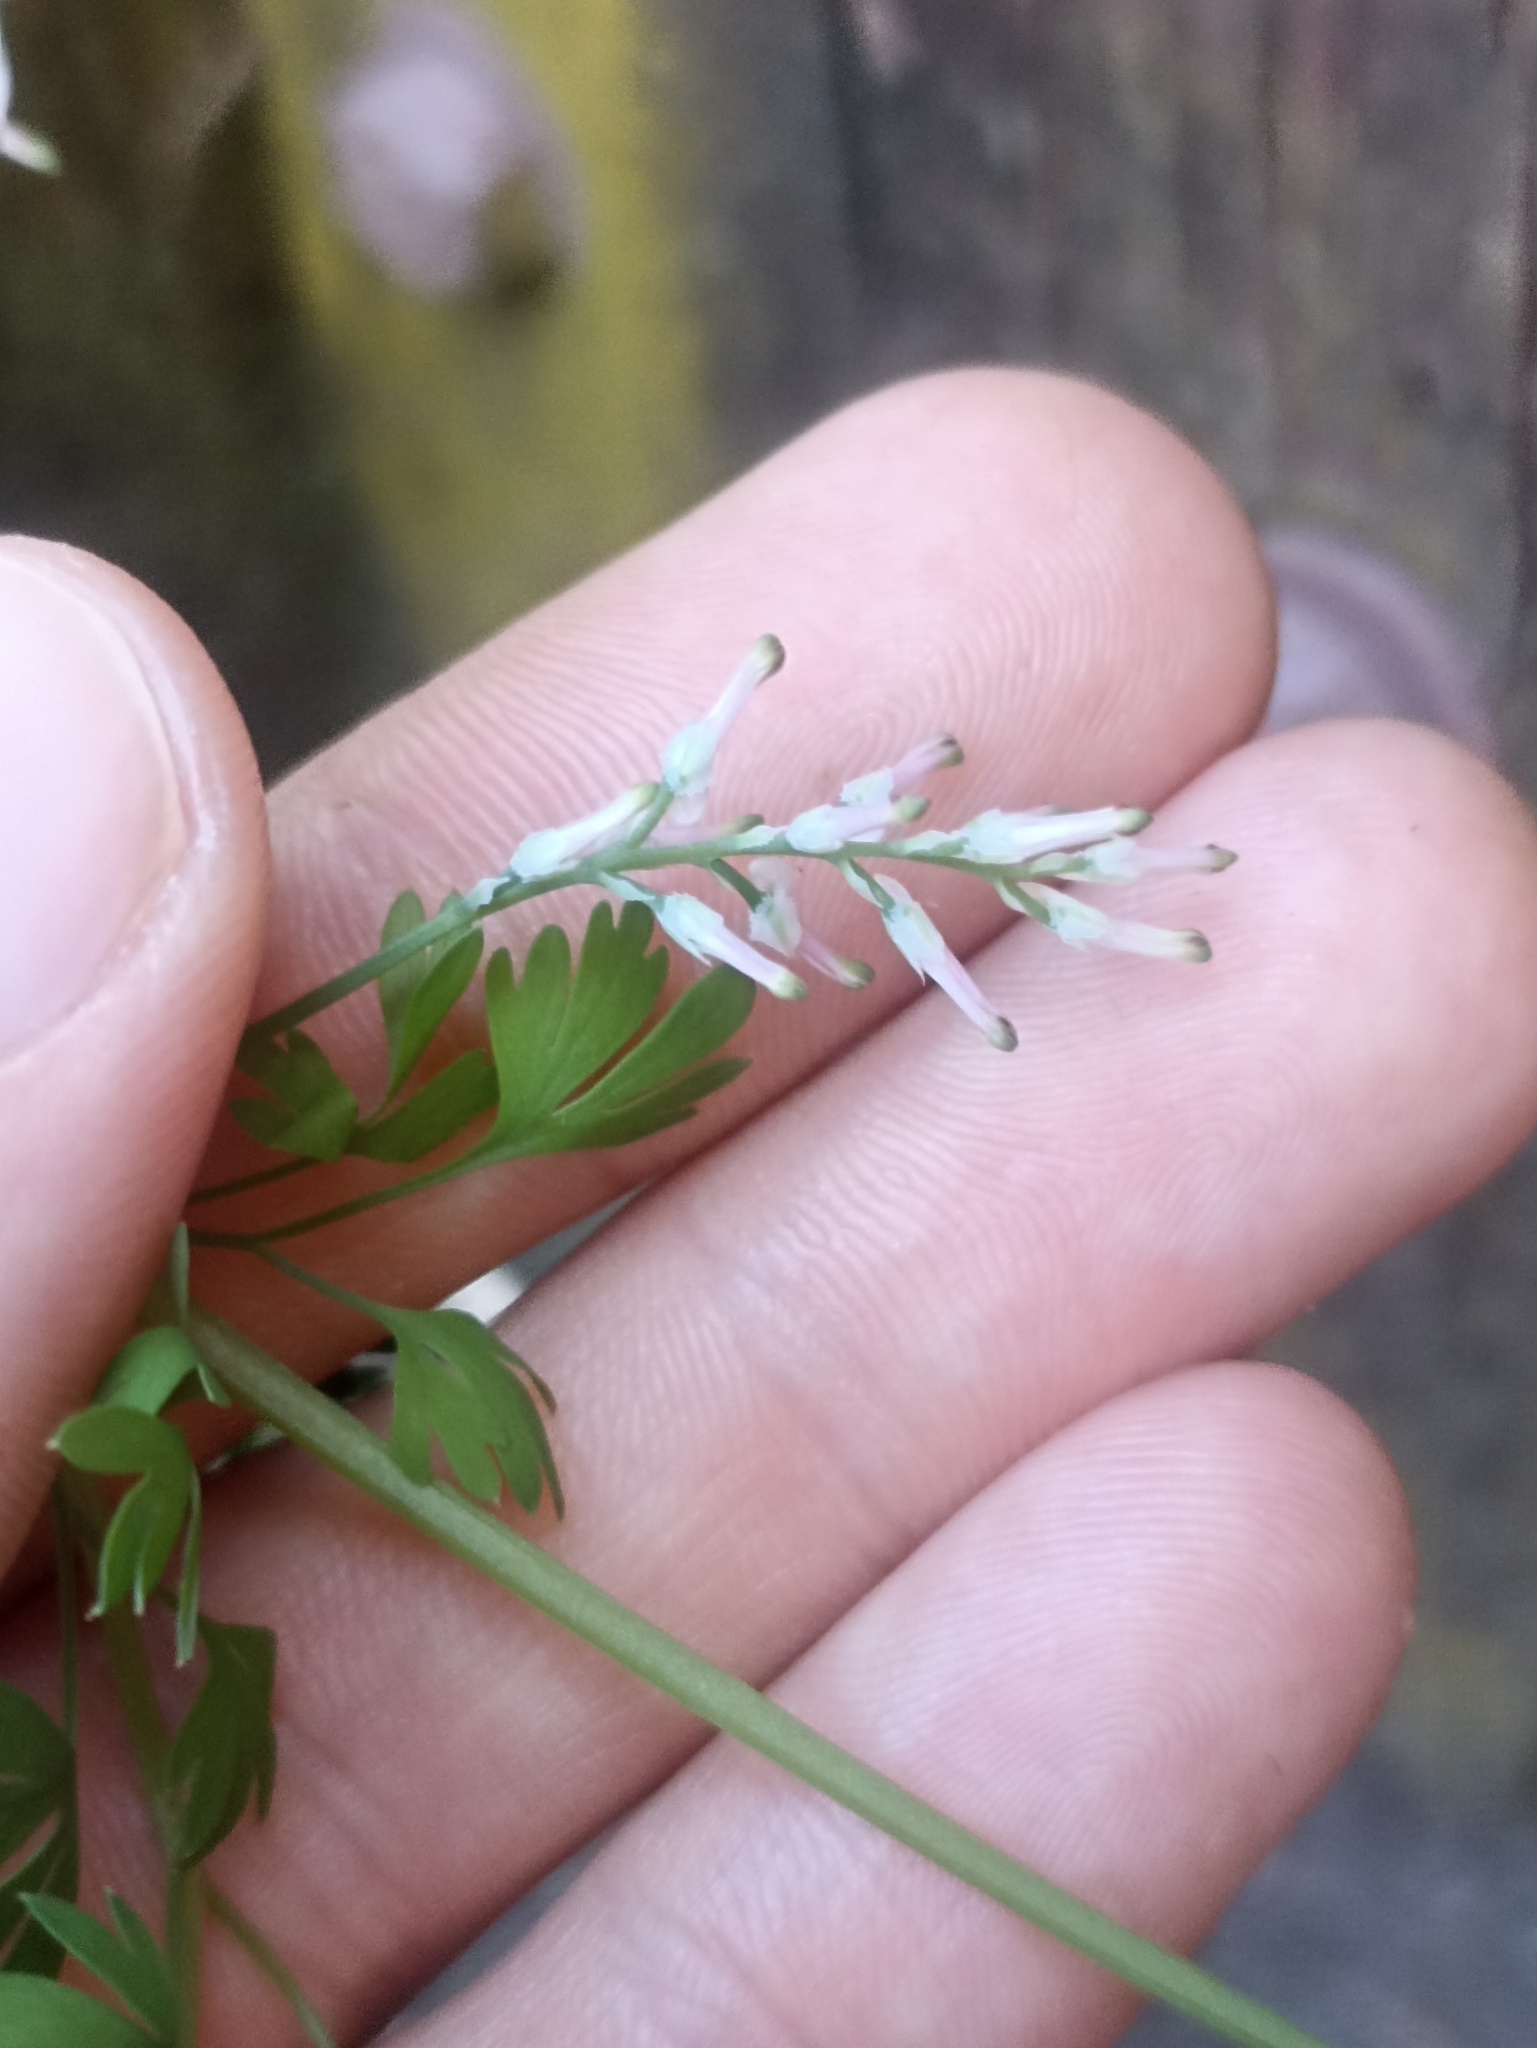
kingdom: Plantae
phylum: Tracheophyta
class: Magnoliopsida
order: Ranunculales
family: Papaveraceae
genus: Fumaria
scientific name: Fumaria muralis
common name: Common ramping-fumitory
